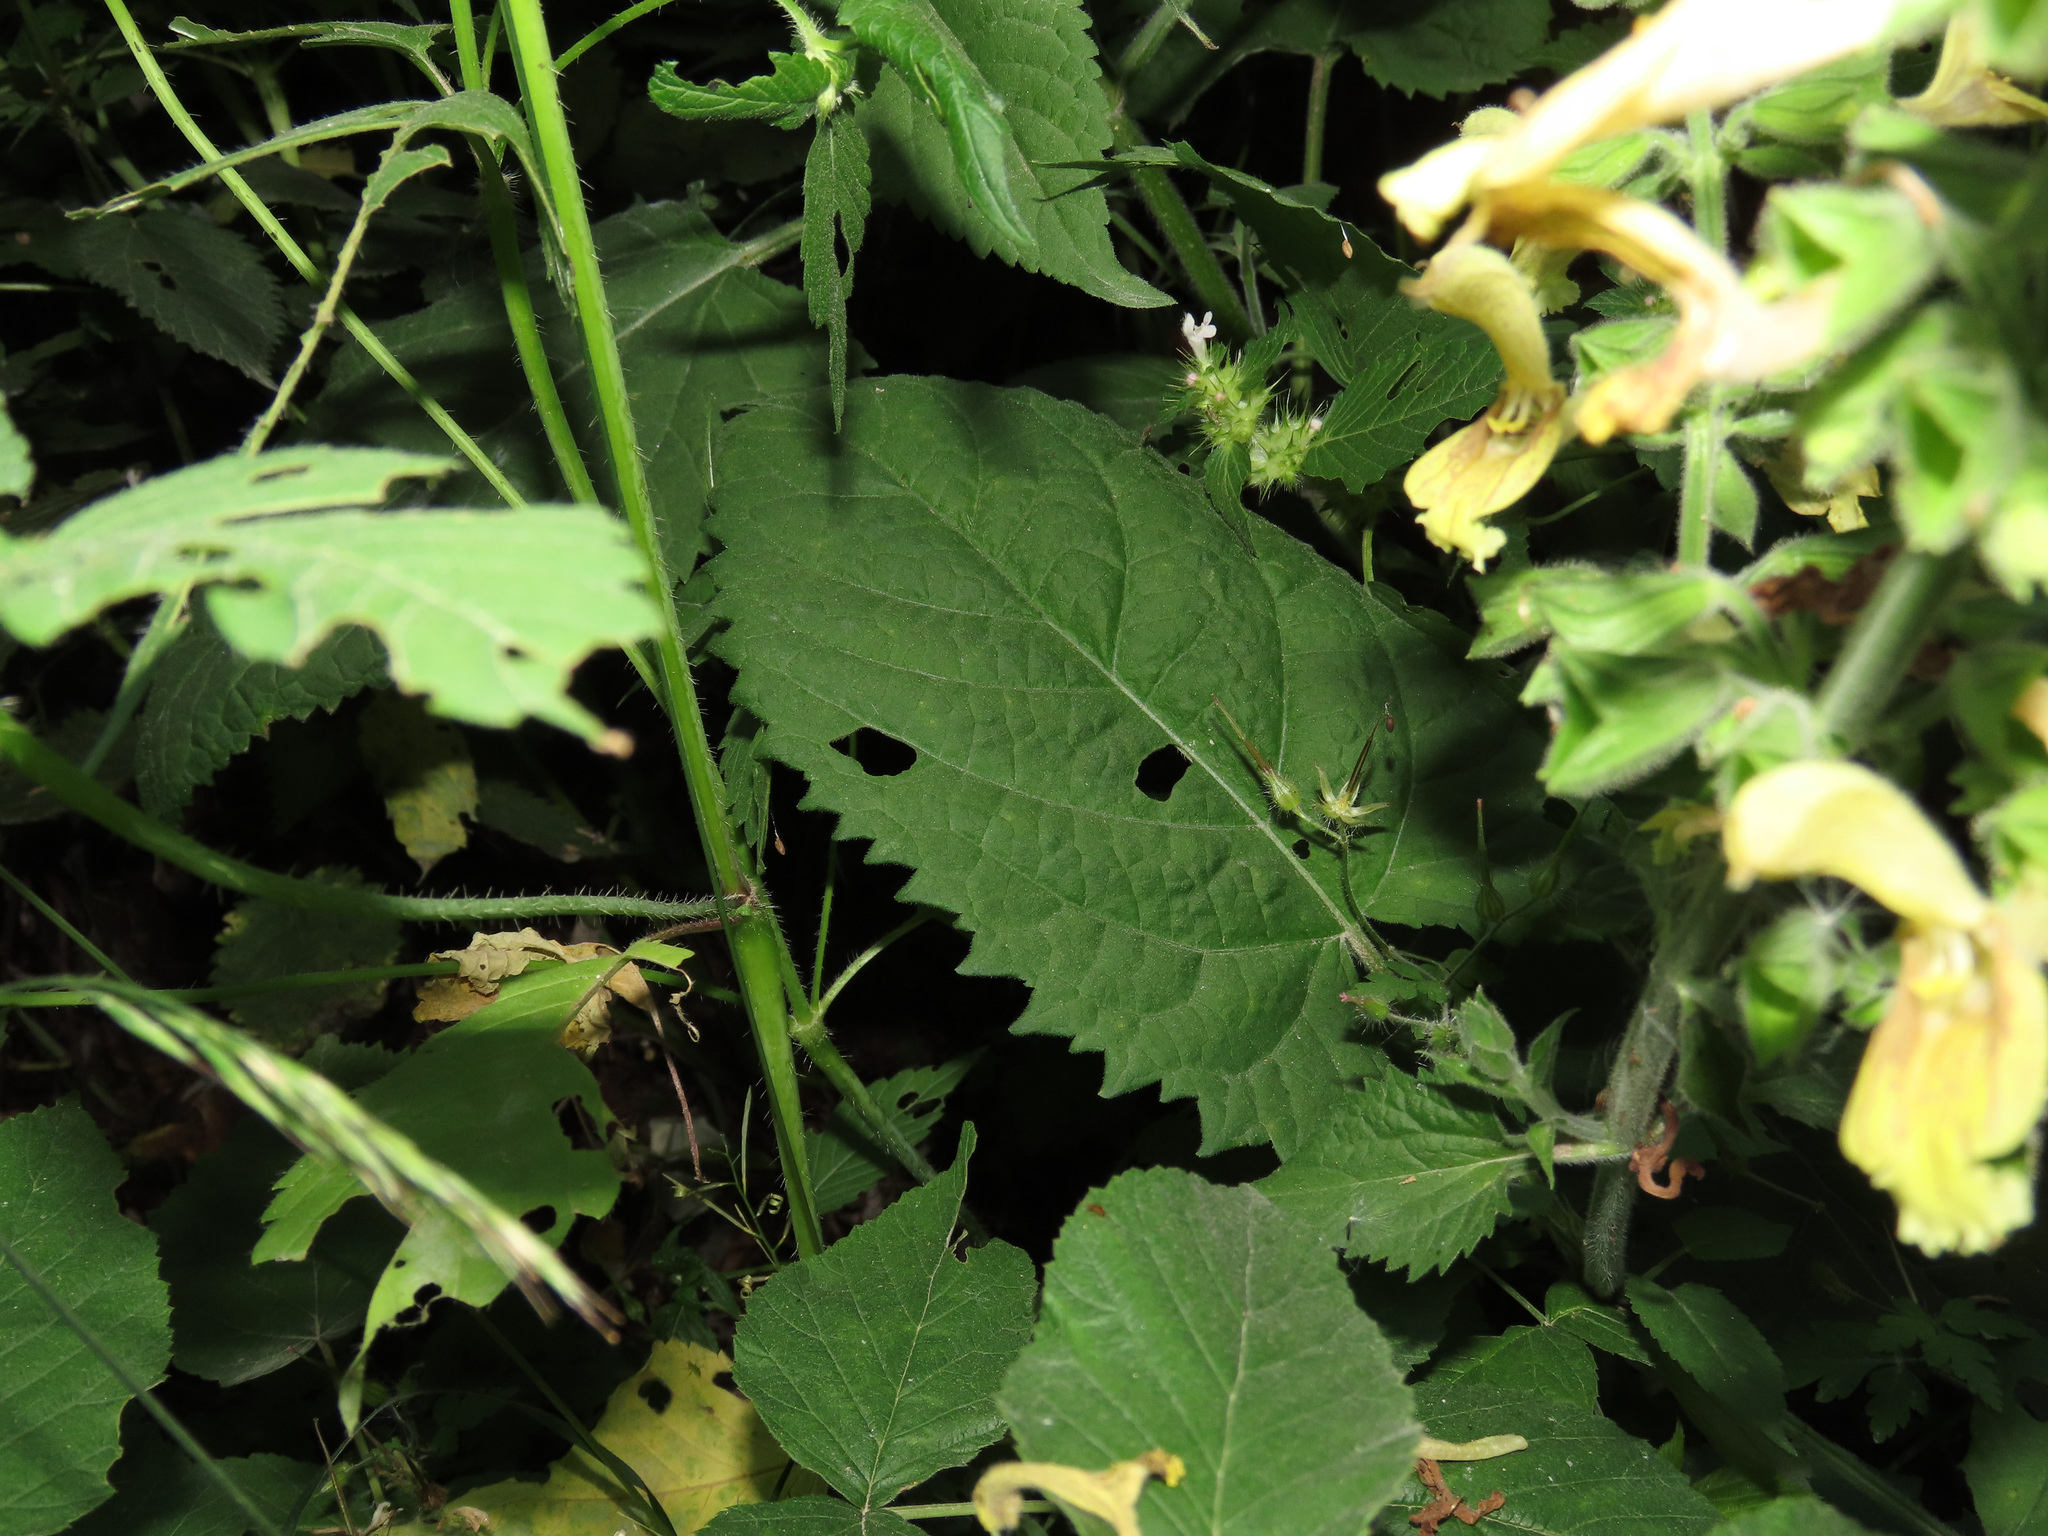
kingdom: Plantae
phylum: Tracheophyta
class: Magnoliopsida
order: Lamiales
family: Lamiaceae
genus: Salvia
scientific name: Salvia glutinosa
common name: Sticky clary
